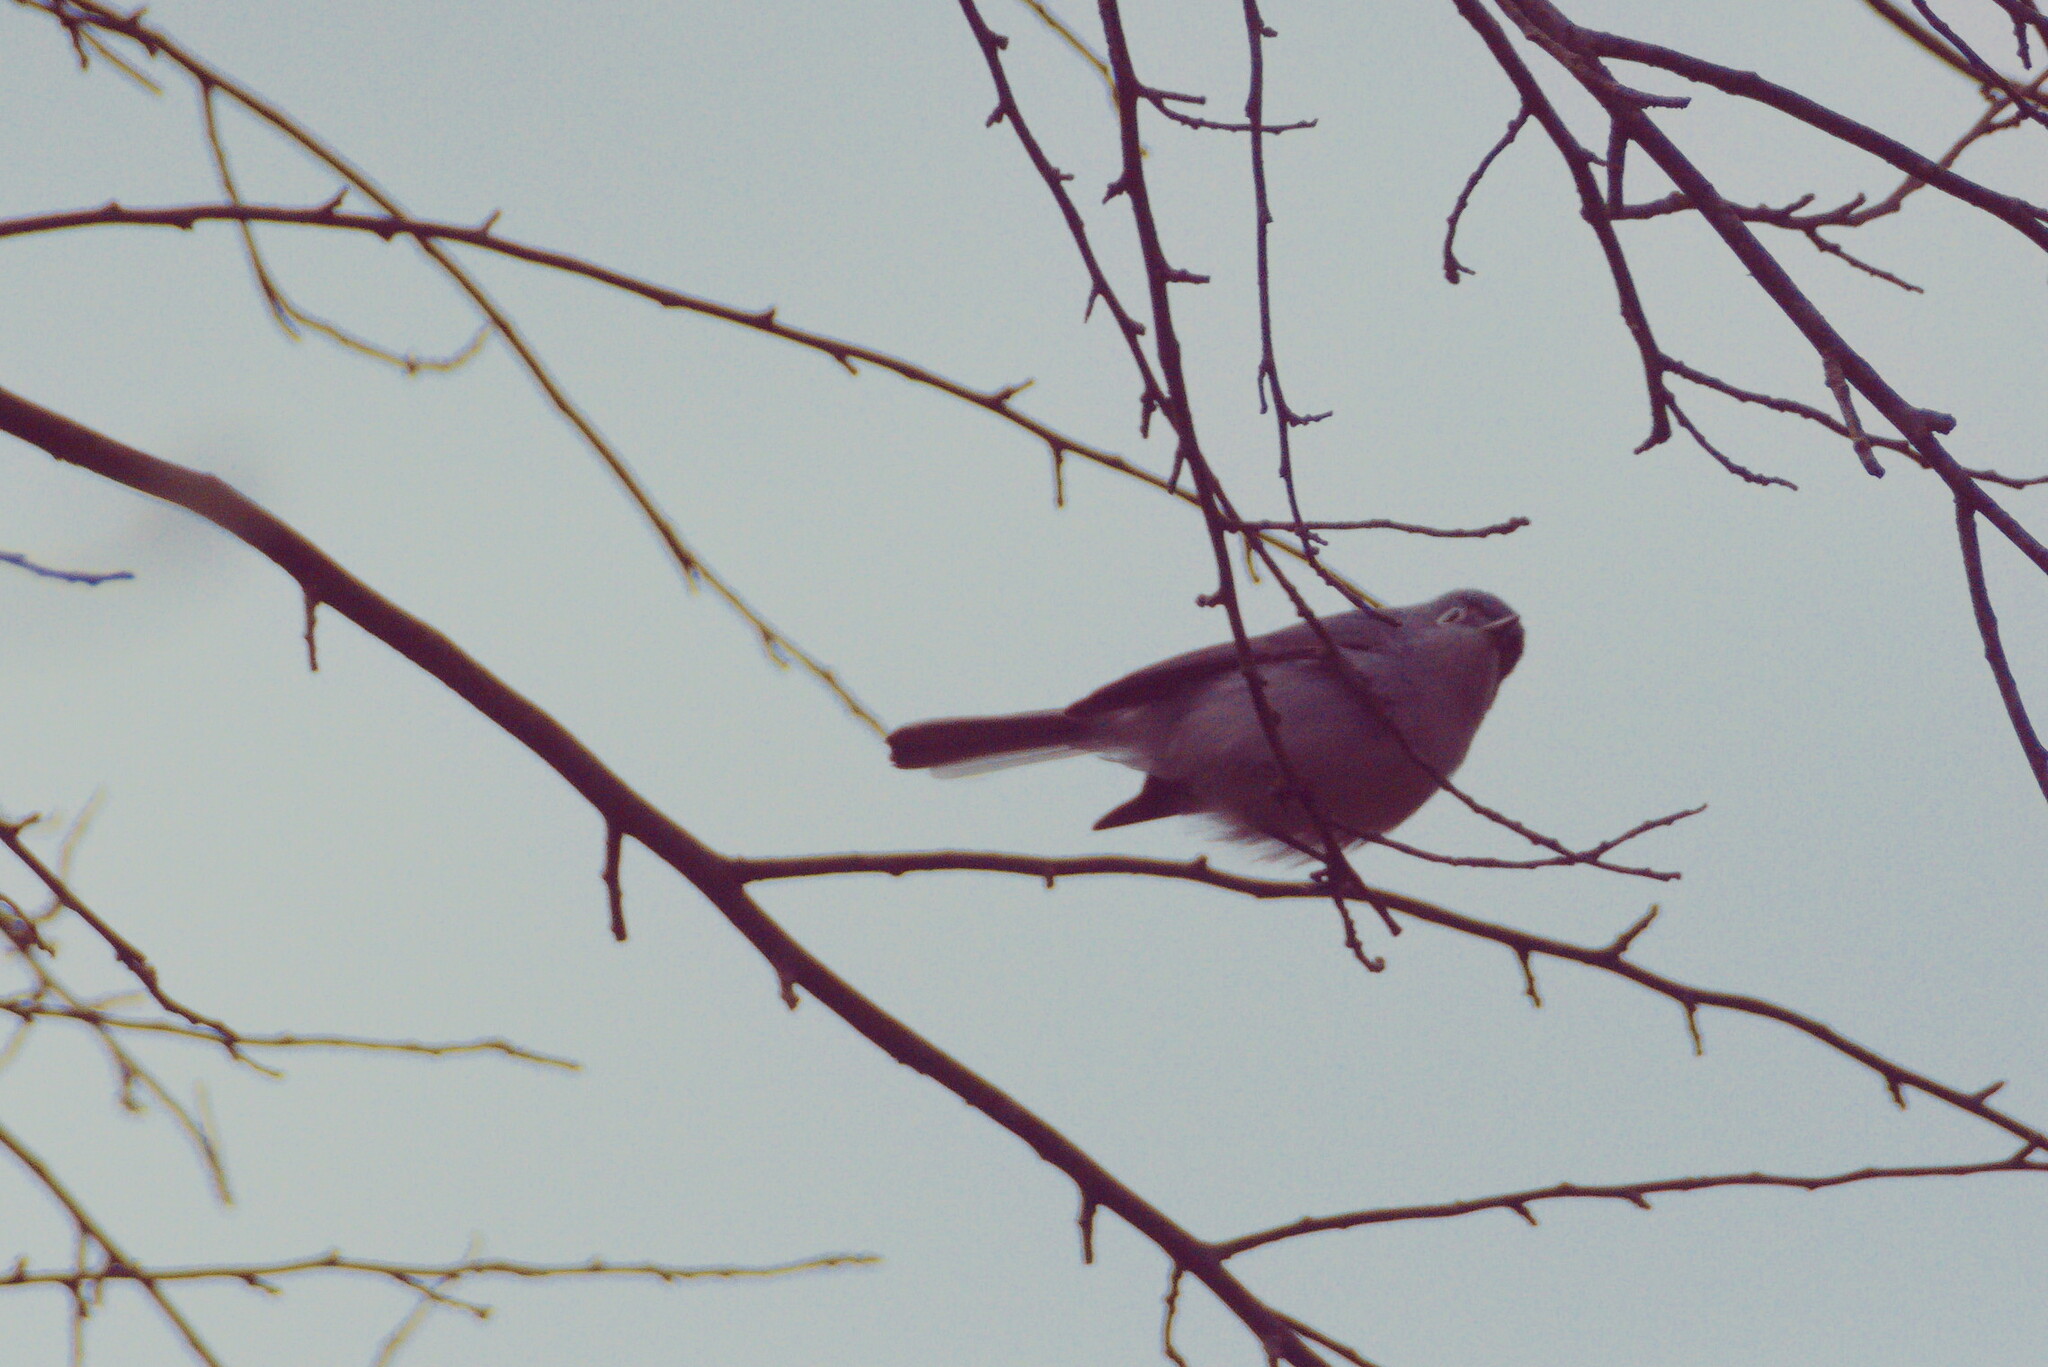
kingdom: Animalia
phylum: Chordata
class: Aves
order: Passeriformes
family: Polioptilidae
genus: Polioptila
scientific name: Polioptila caerulea
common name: Blue-gray gnatcatcher
